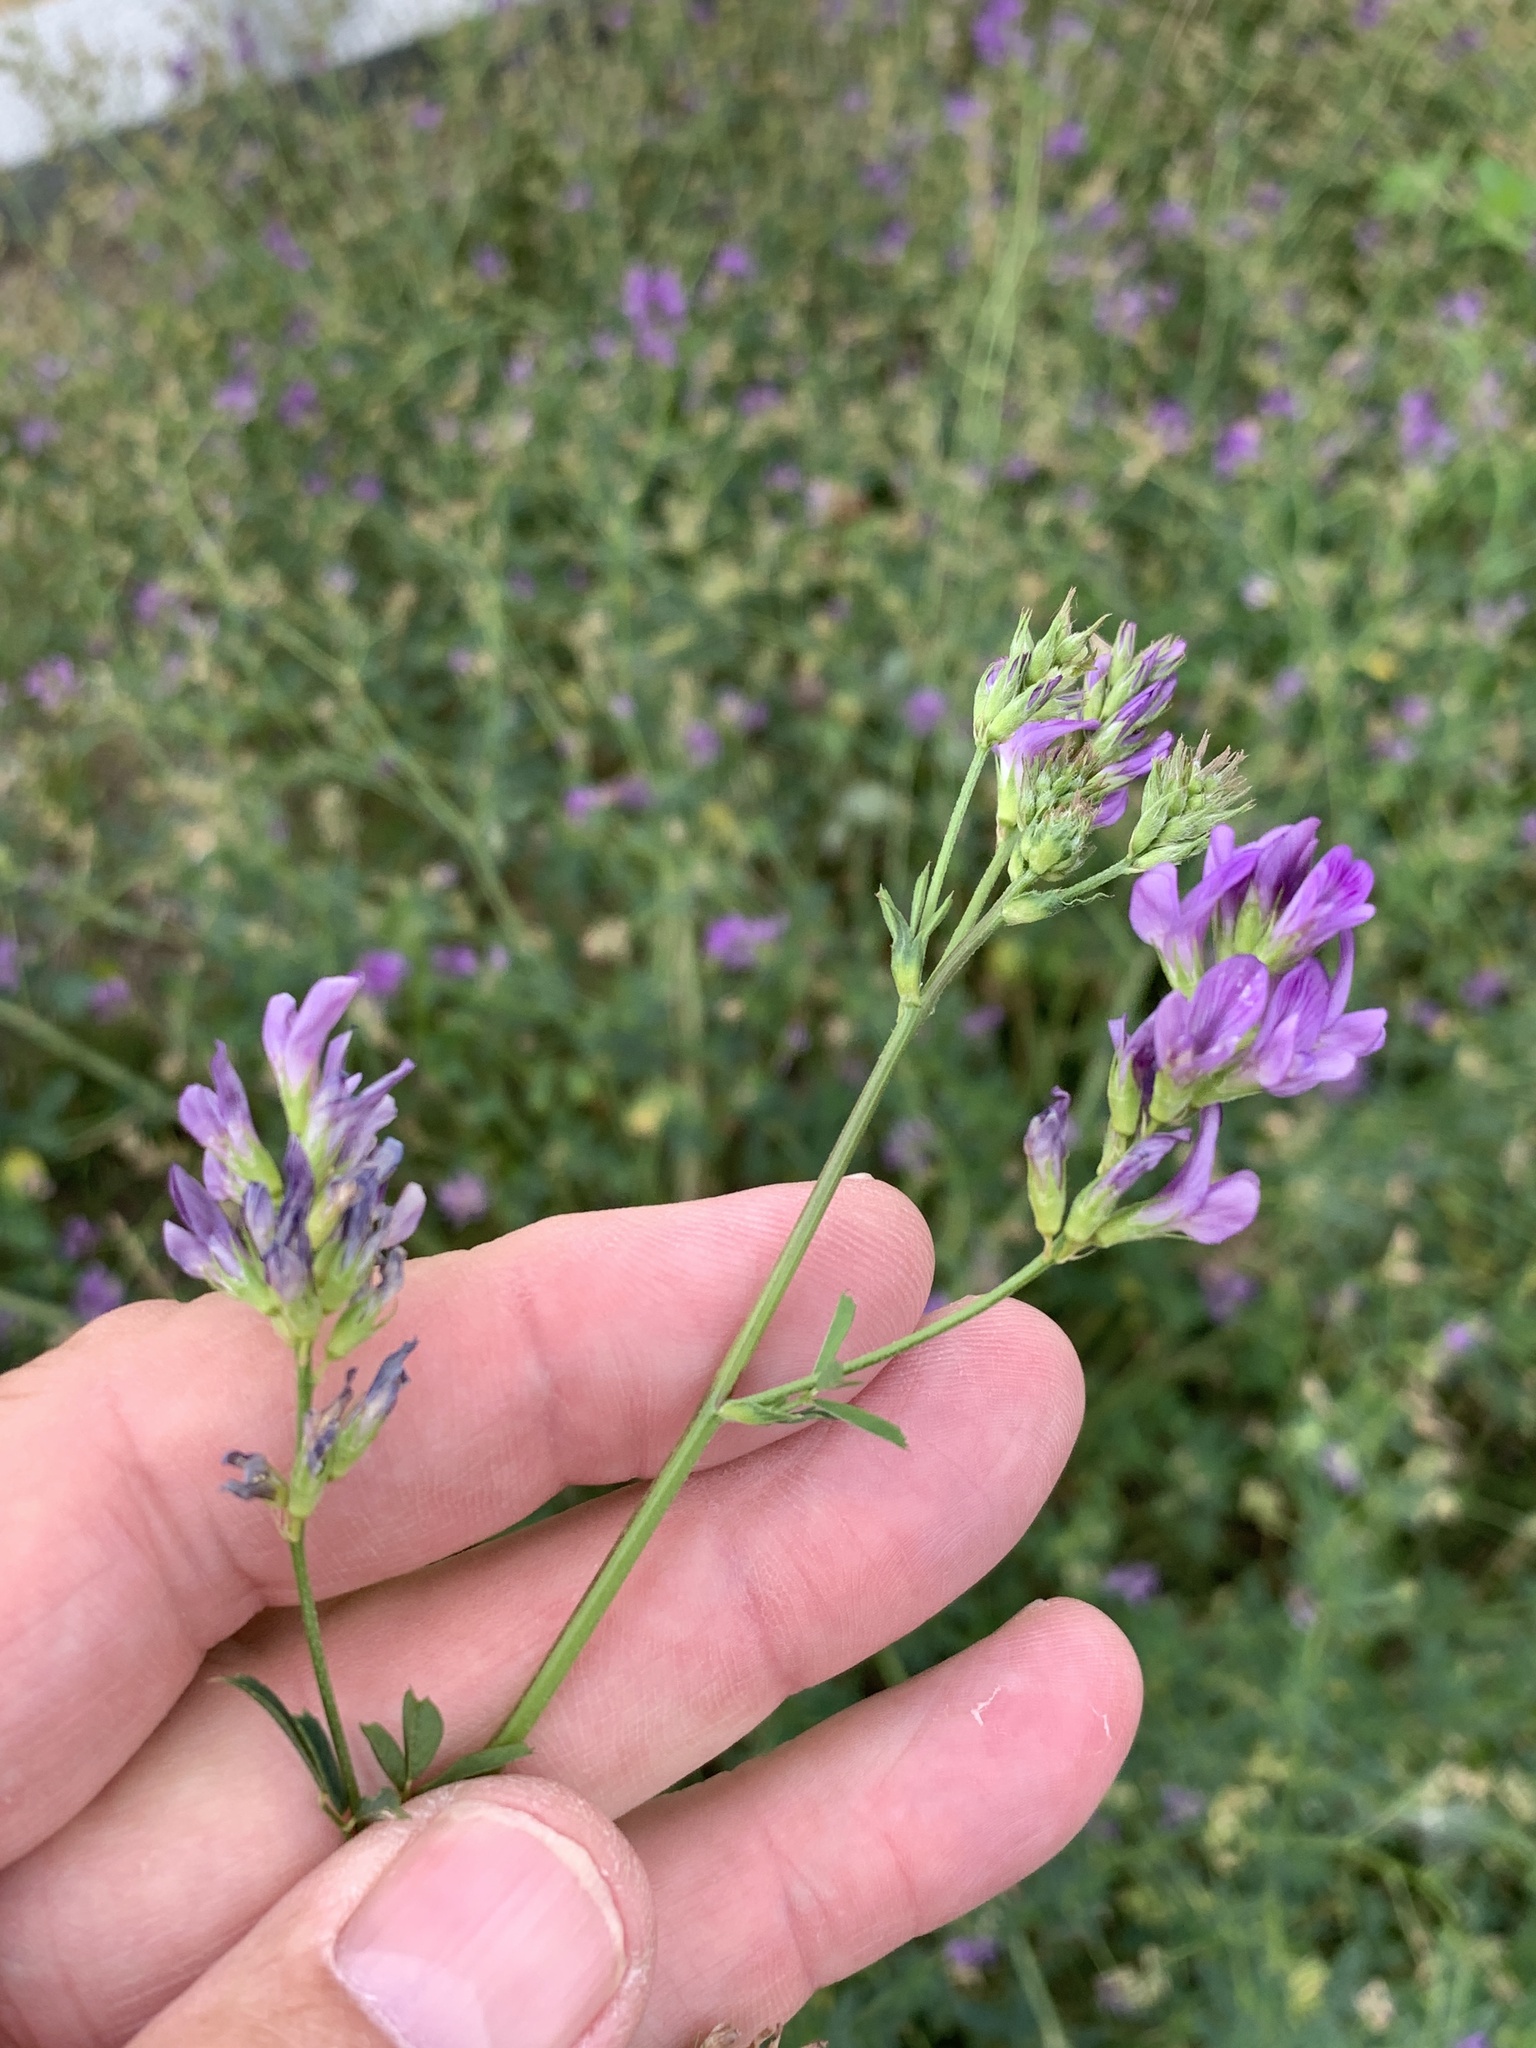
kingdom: Plantae
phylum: Tracheophyta
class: Magnoliopsida
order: Fabales
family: Fabaceae
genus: Medicago
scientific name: Medicago sativa
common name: Alfalfa
